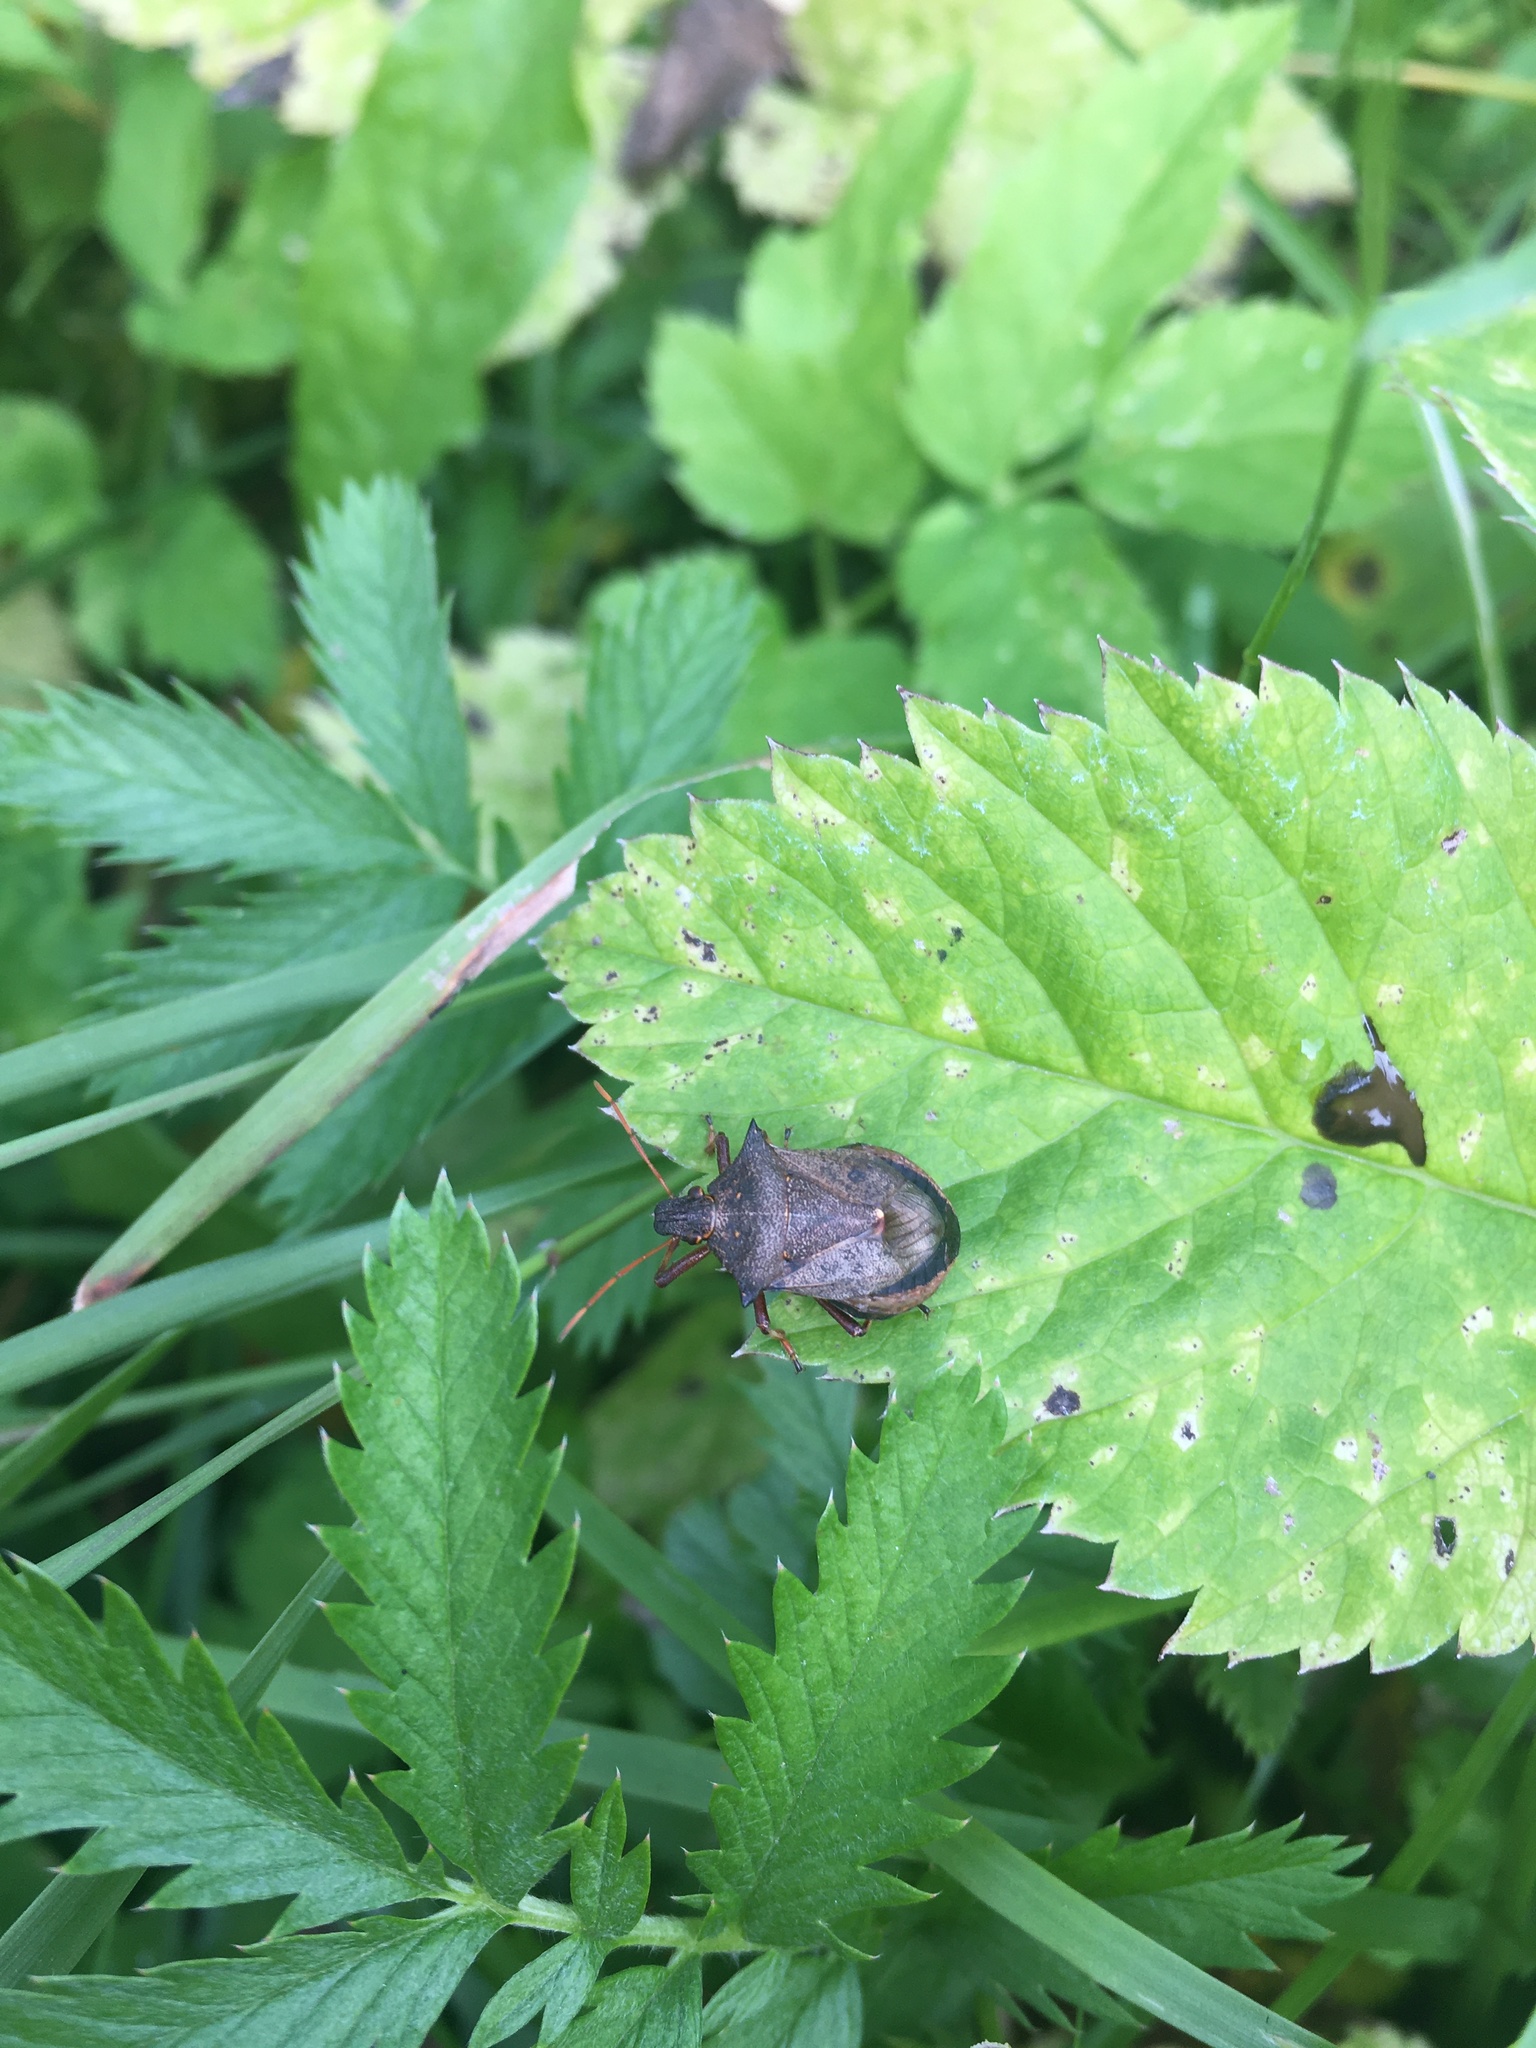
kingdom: Animalia
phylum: Arthropoda
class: Insecta
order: Hemiptera
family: Pentatomidae
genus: Picromerus
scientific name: Picromerus bidens
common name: Spiked shieldbug
